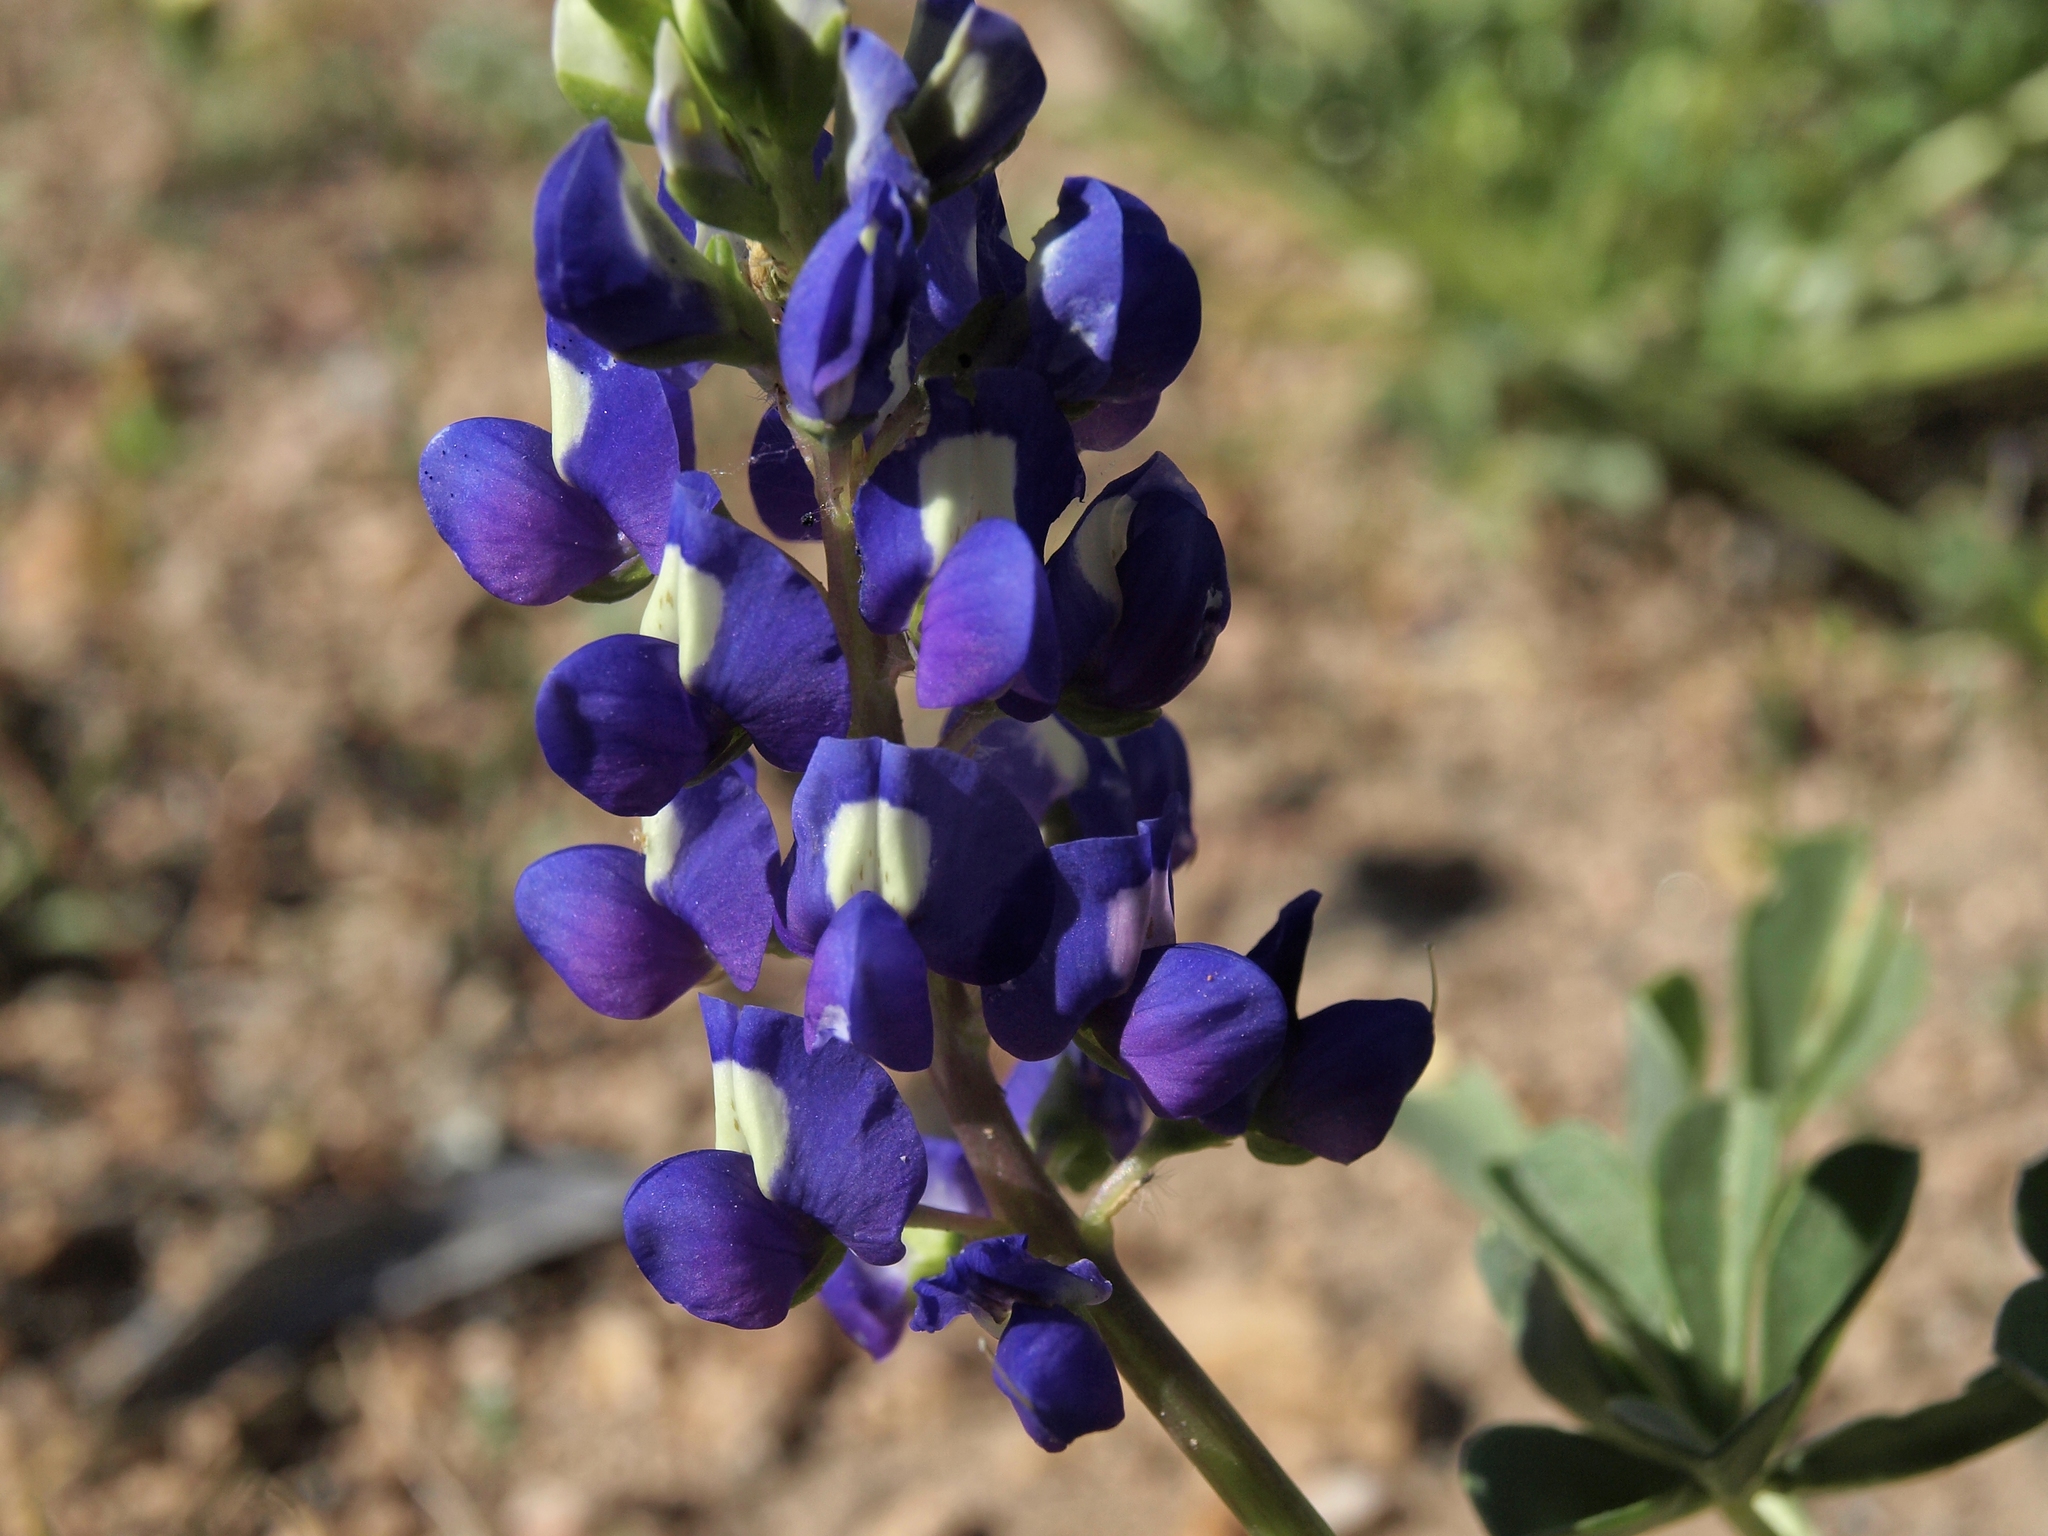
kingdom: Plantae
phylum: Tracheophyta
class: Magnoliopsida
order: Fabales
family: Fabaceae
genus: Lupinus
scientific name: Lupinus
